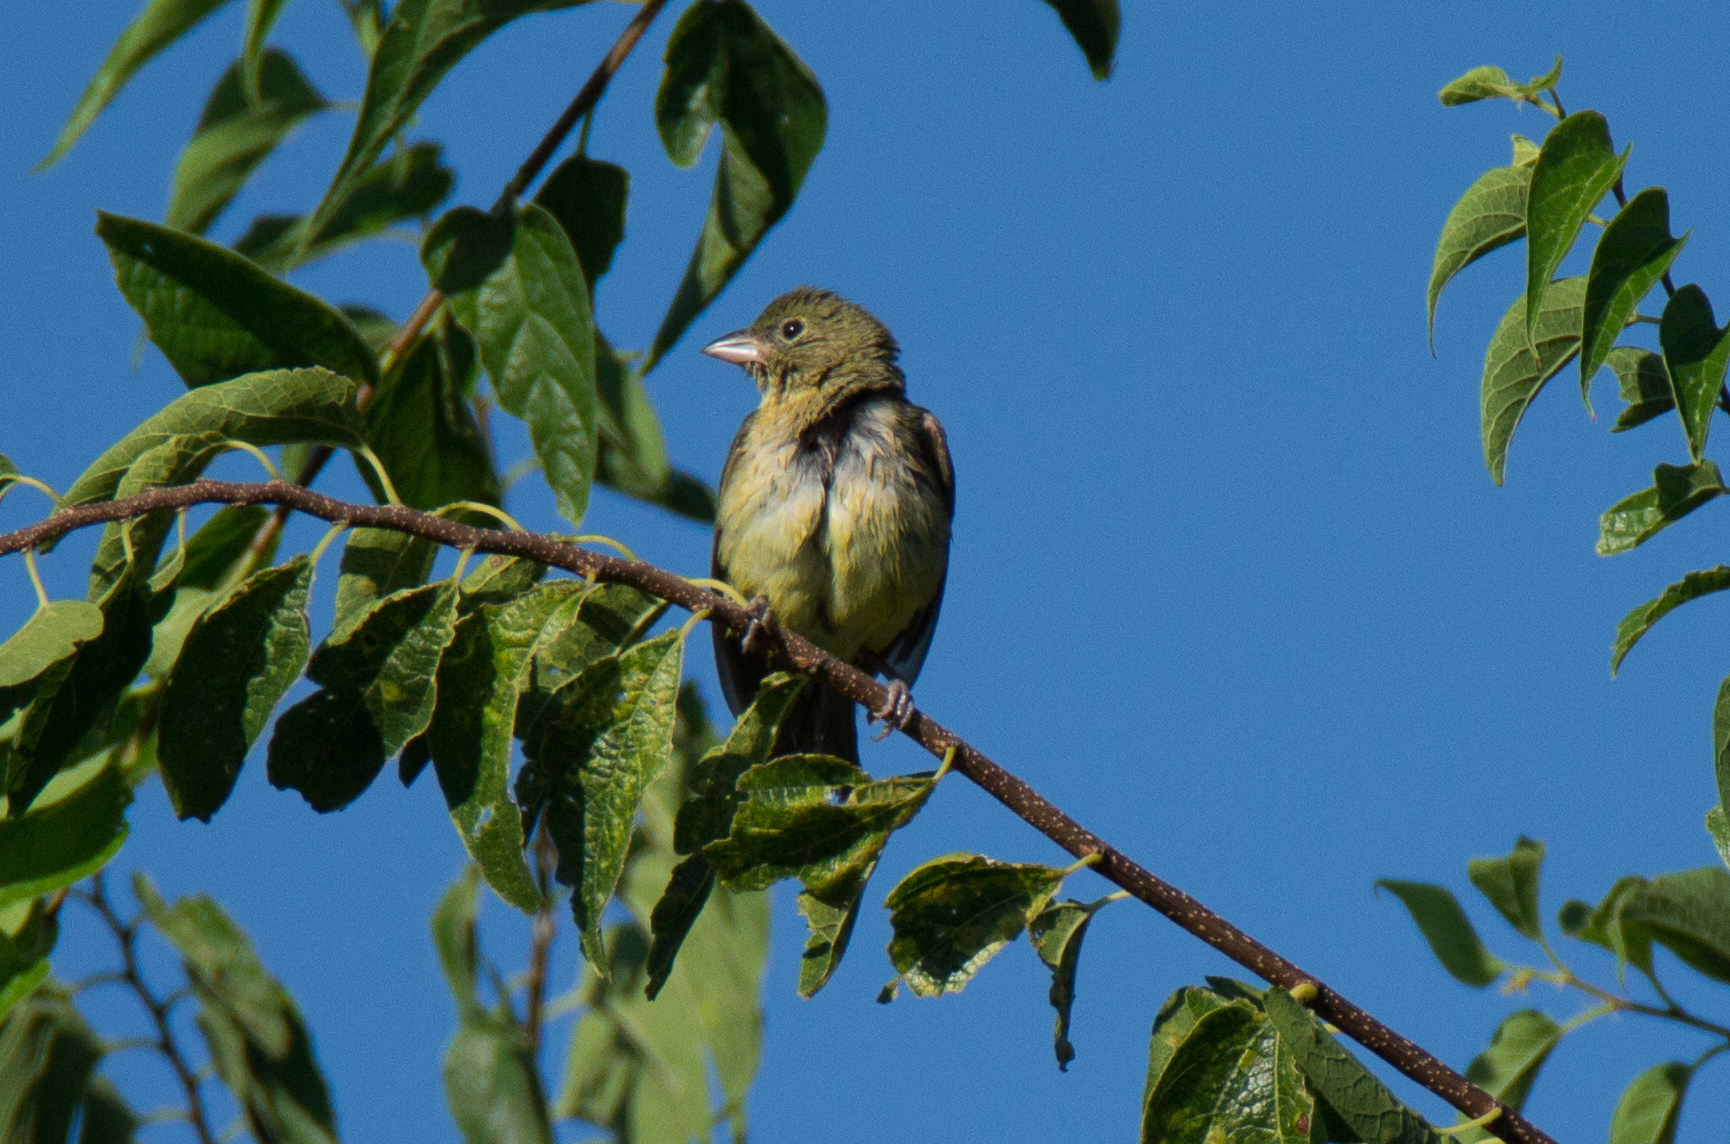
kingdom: Animalia
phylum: Chordata
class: Aves
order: Passeriformes
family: Cardinalidae
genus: Passerina
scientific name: Passerina ciris
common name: Painted bunting
